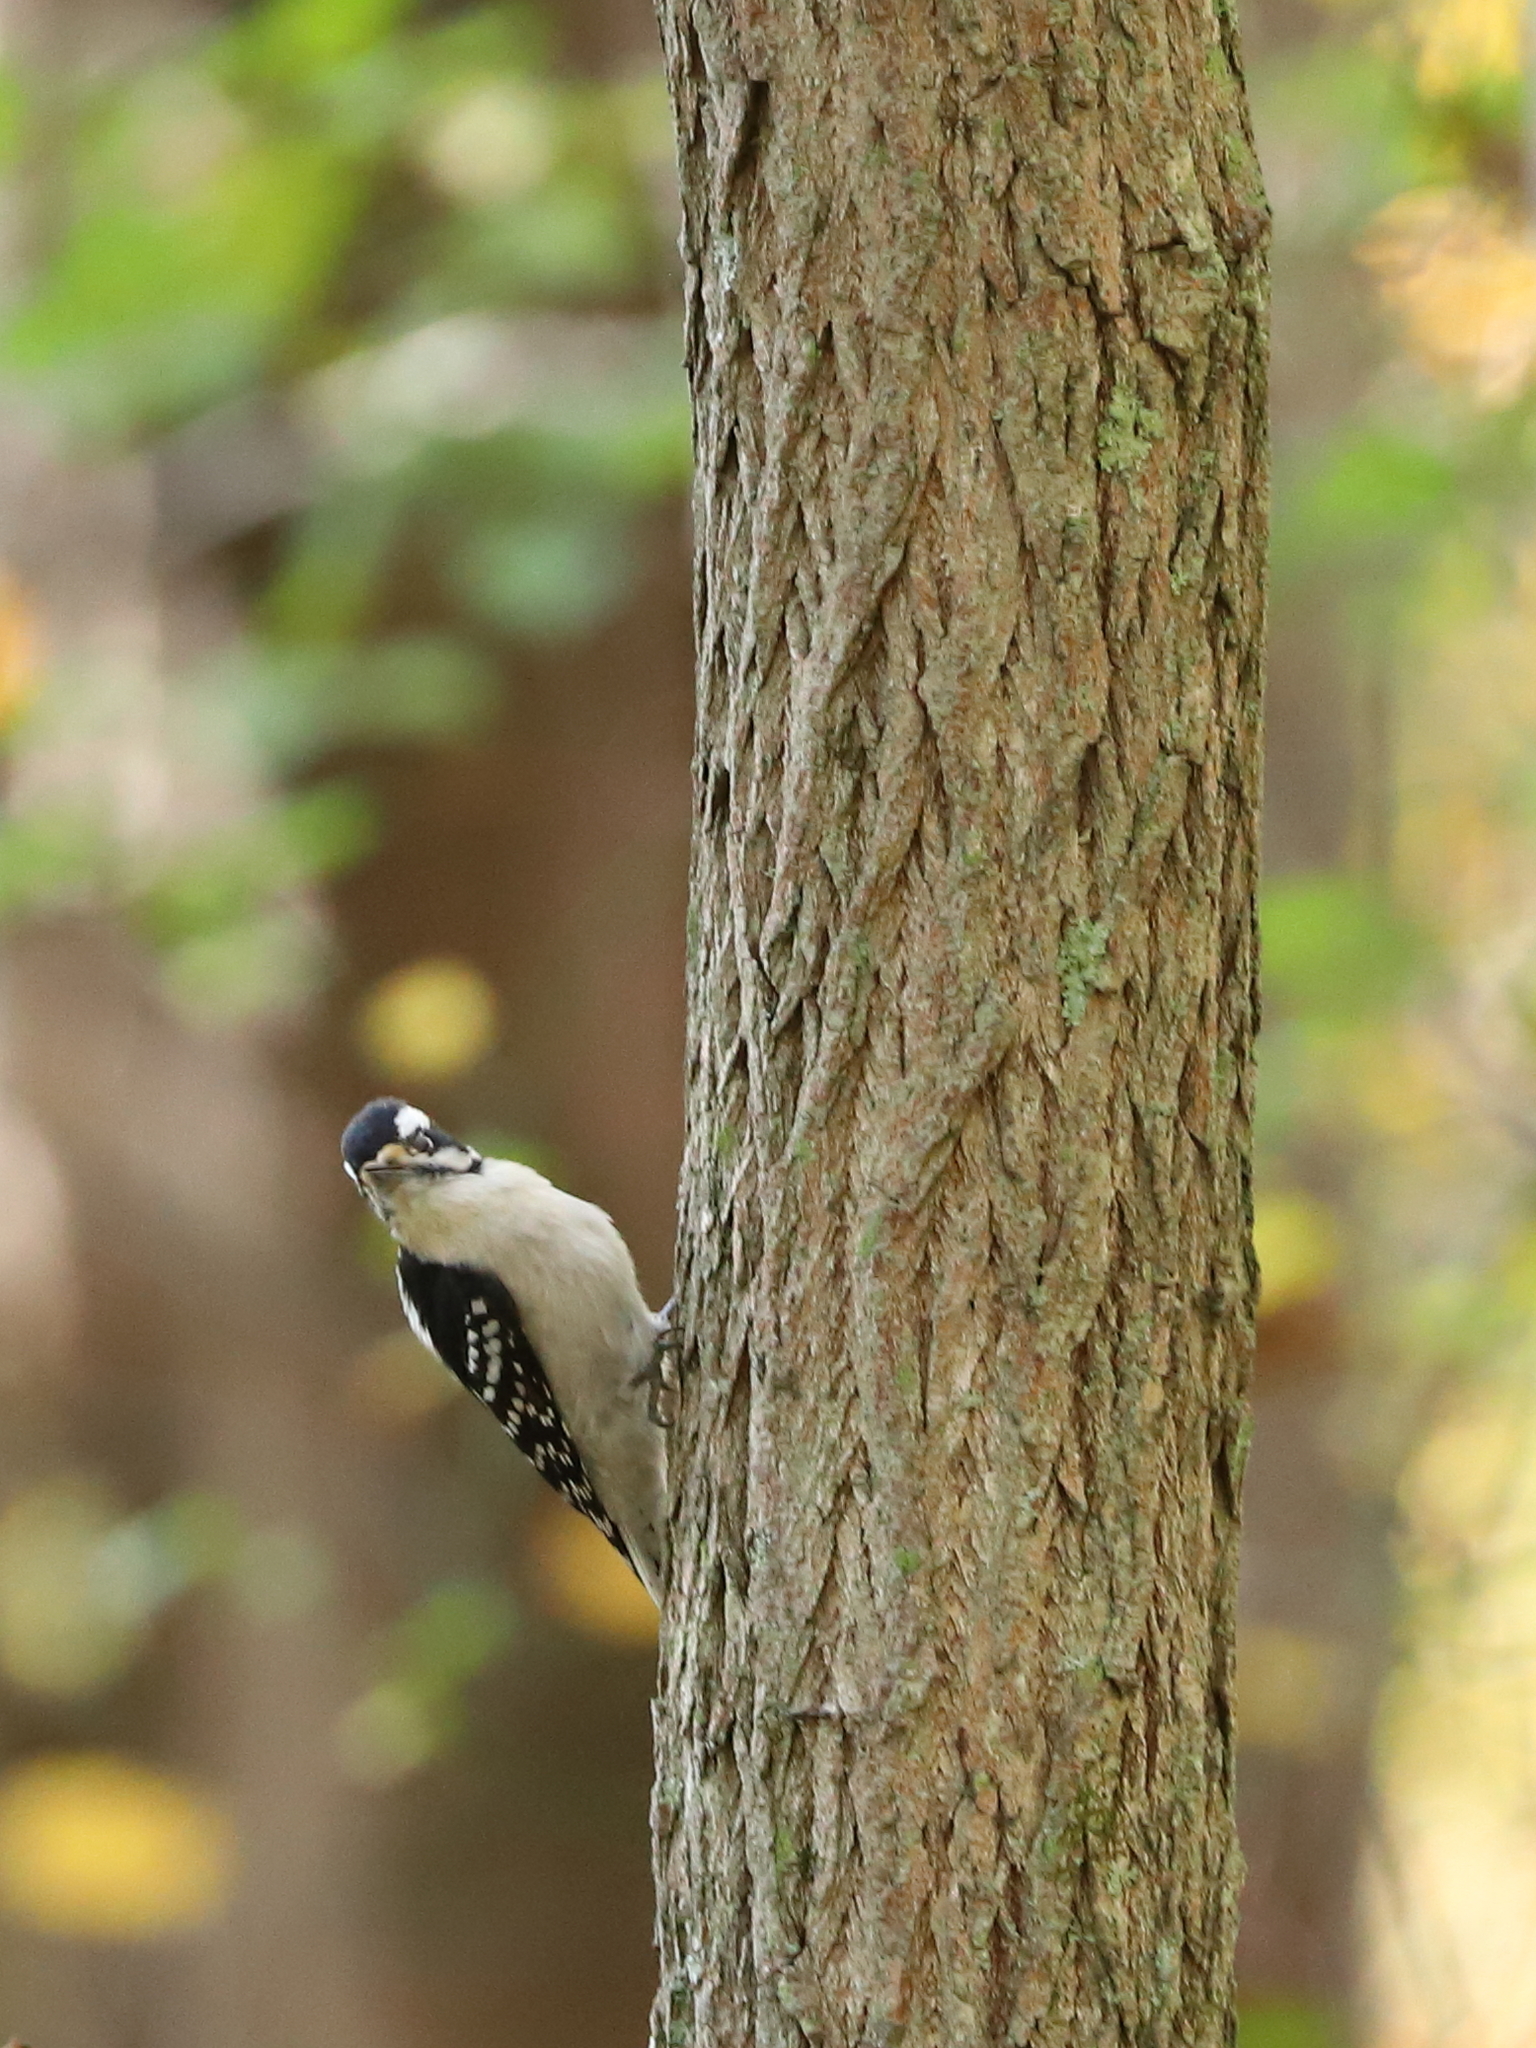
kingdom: Animalia
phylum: Chordata
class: Aves
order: Piciformes
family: Picidae
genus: Dryobates
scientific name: Dryobates pubescens
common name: Downy woodpecker
